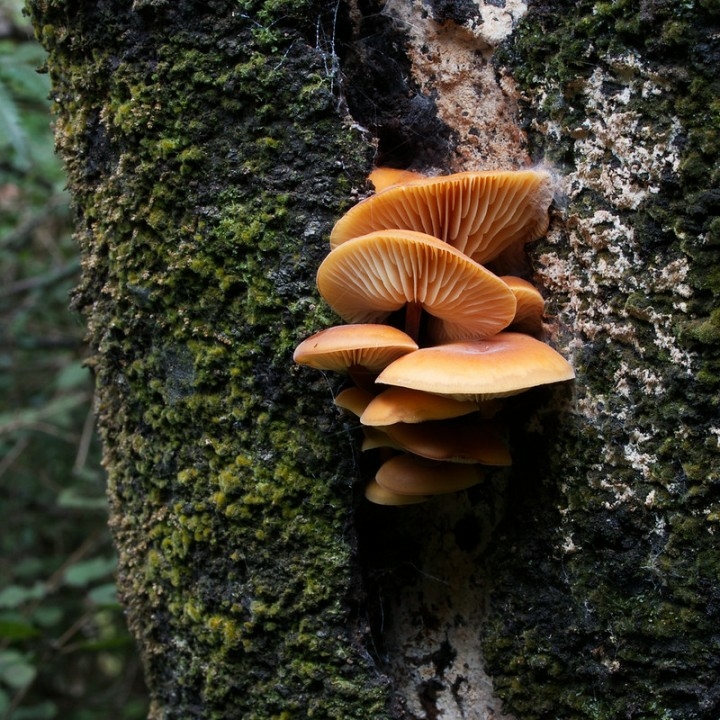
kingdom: Fungi
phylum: Basidiomycota
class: Agaricomycetes
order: Agaricales
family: Physalacriaceae
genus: Flammulina
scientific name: Flammulina velutipes
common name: Velvet shank
